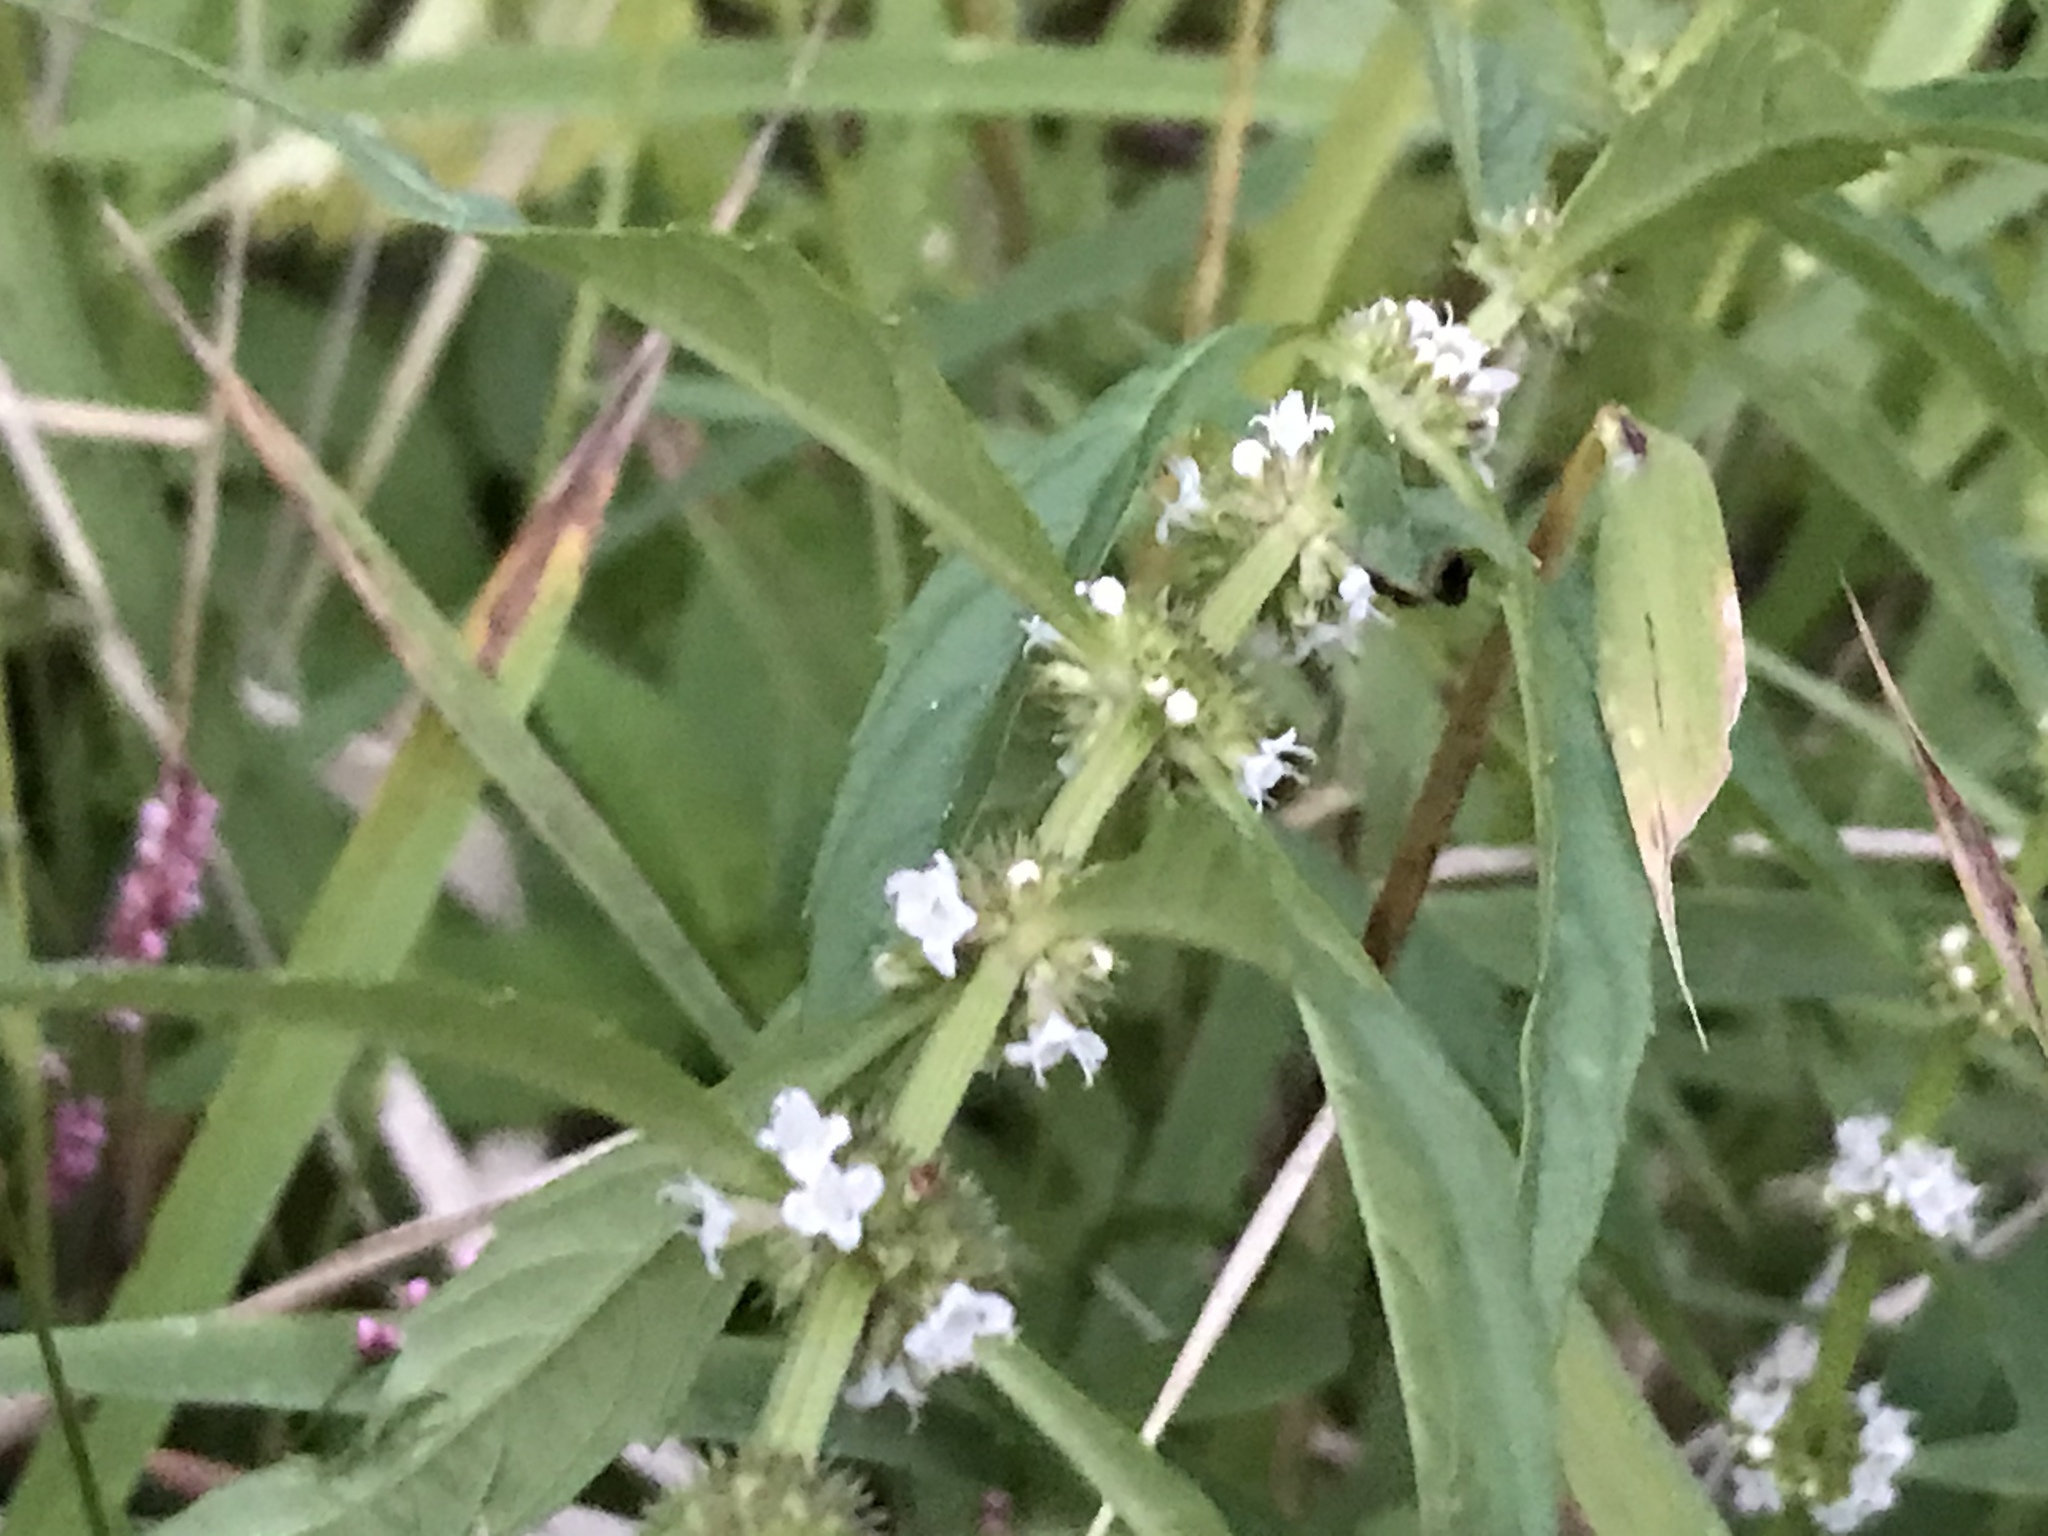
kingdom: Plantae
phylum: Tracheophyta
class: Magnoliopsida
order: Lamiales
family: Lamiaceae
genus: Lycopus
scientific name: Lycopus americanus
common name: American bugleweed
